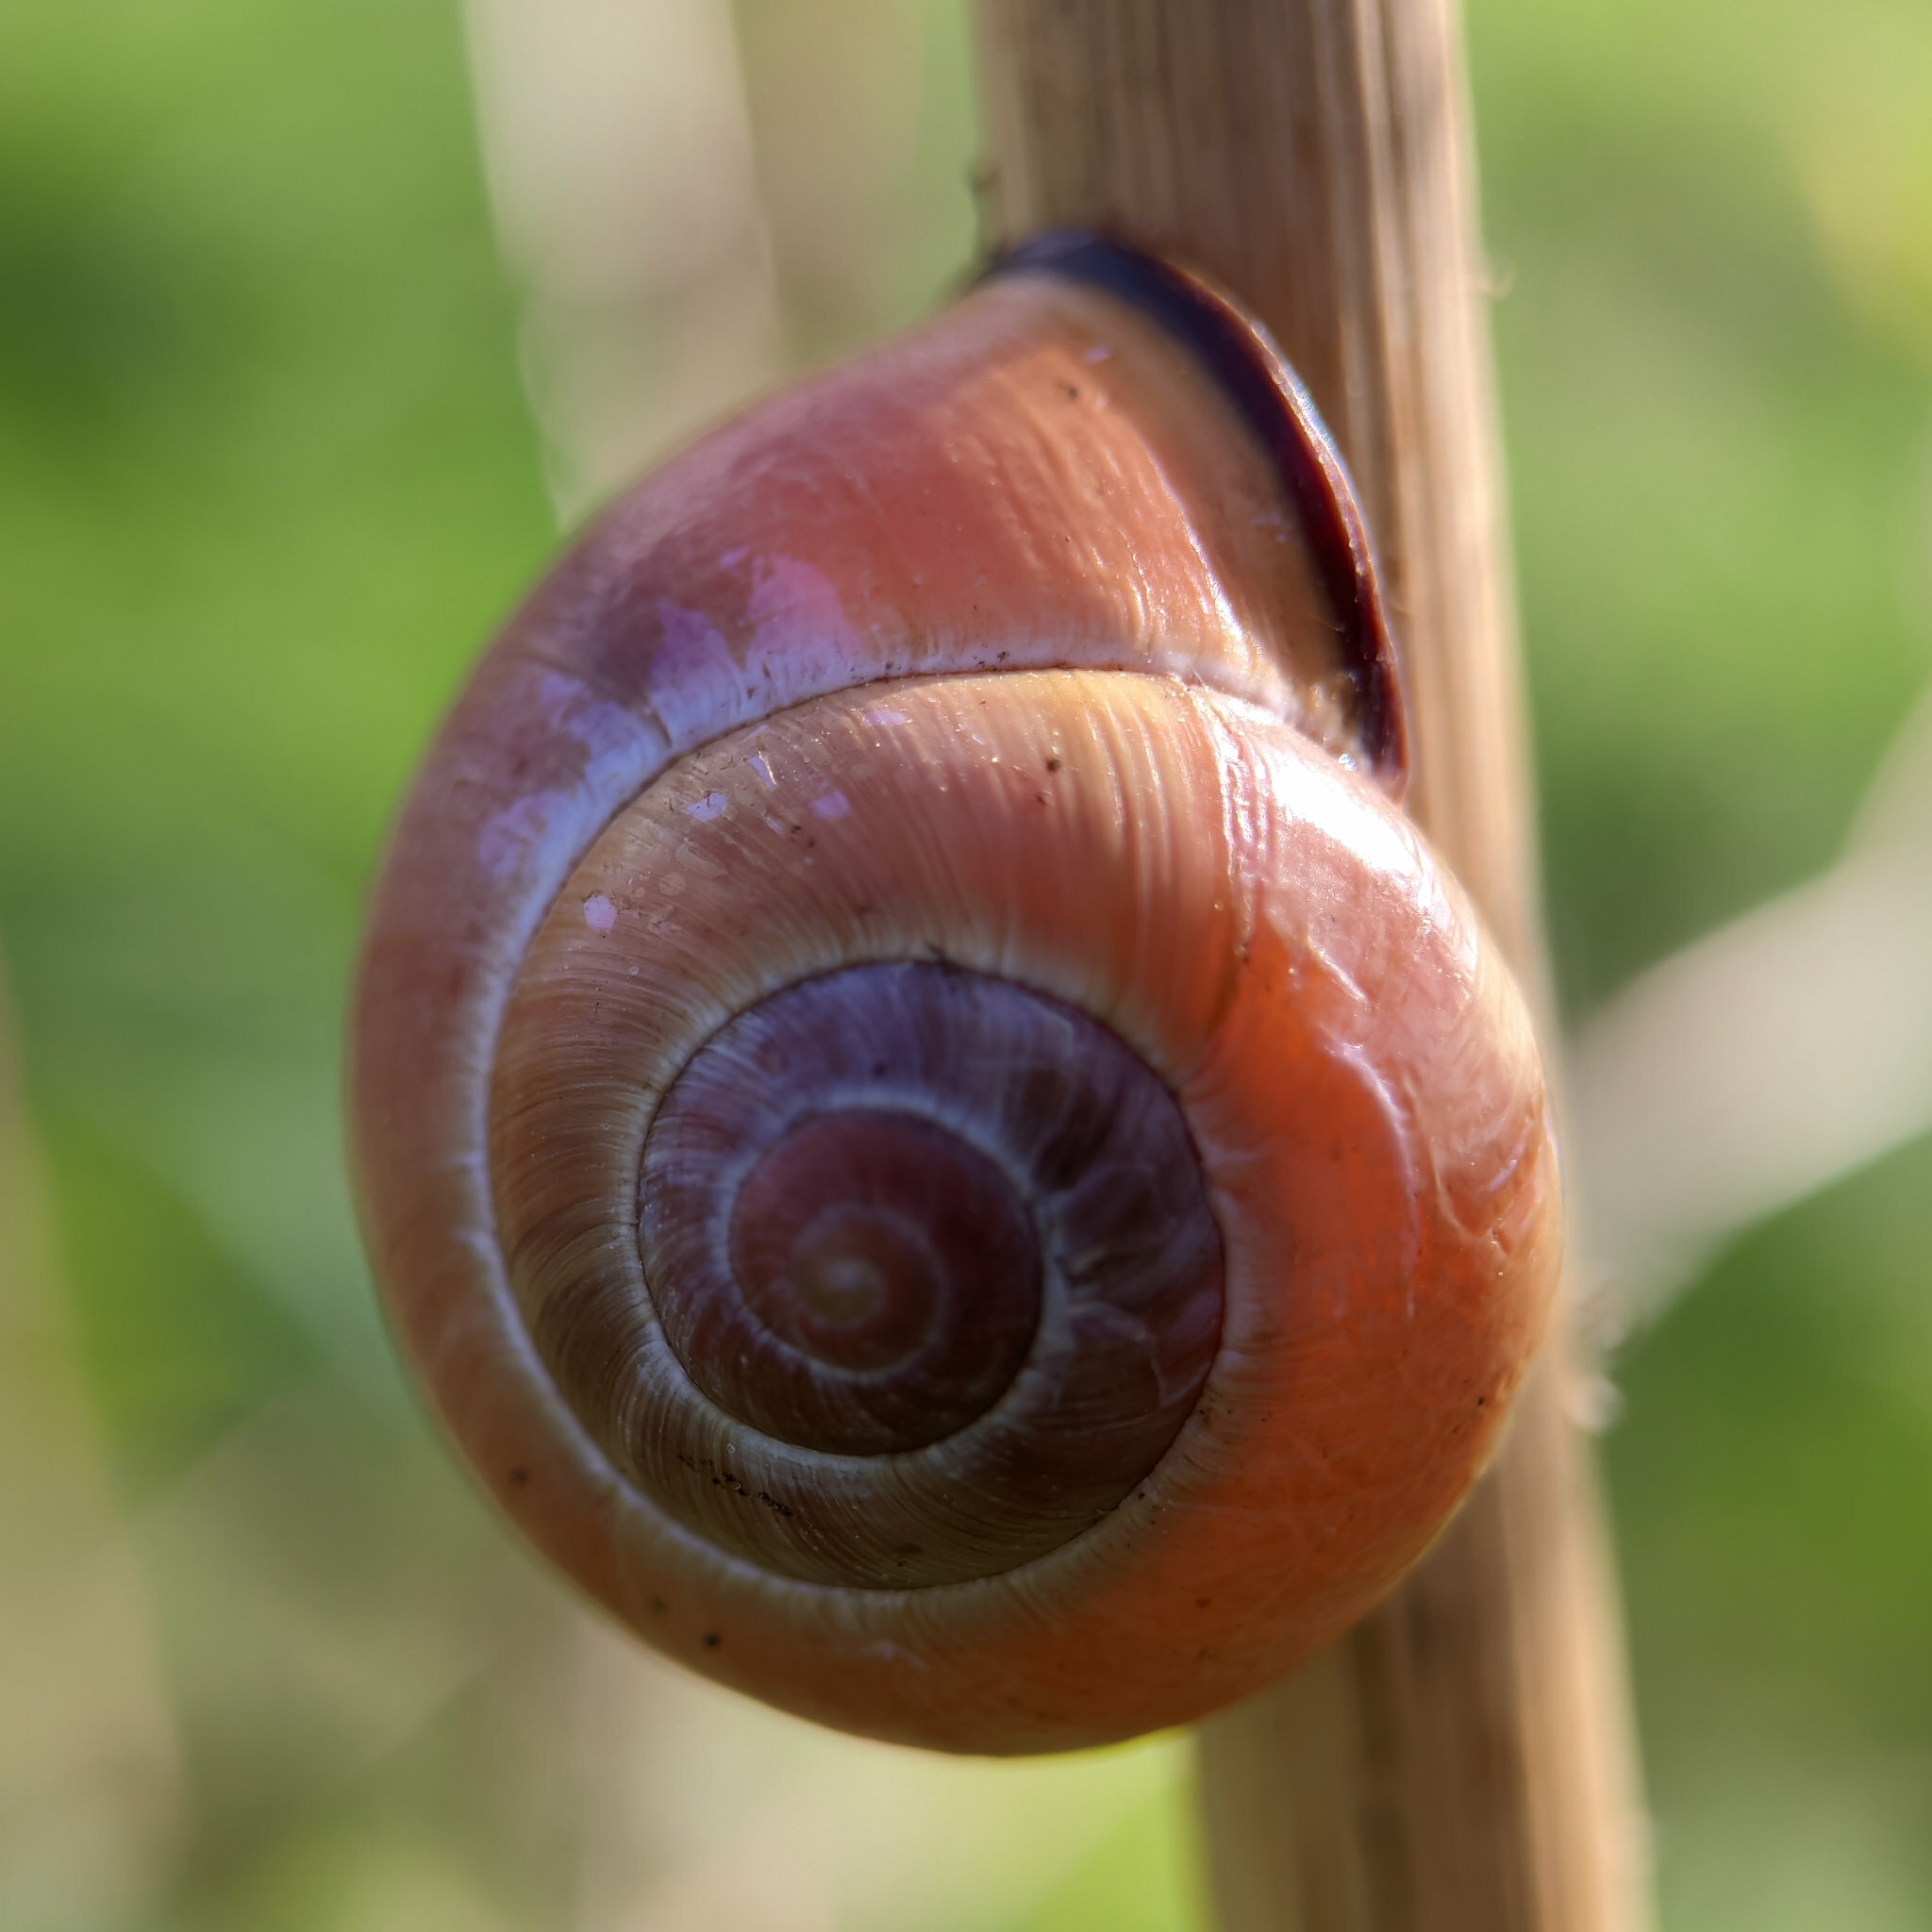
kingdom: Animalia
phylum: Mollusca
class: Gastropoda
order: Stylommatophora
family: Helicidae
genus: Cepaea
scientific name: Cepaea nemoralis
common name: Grovesnail
